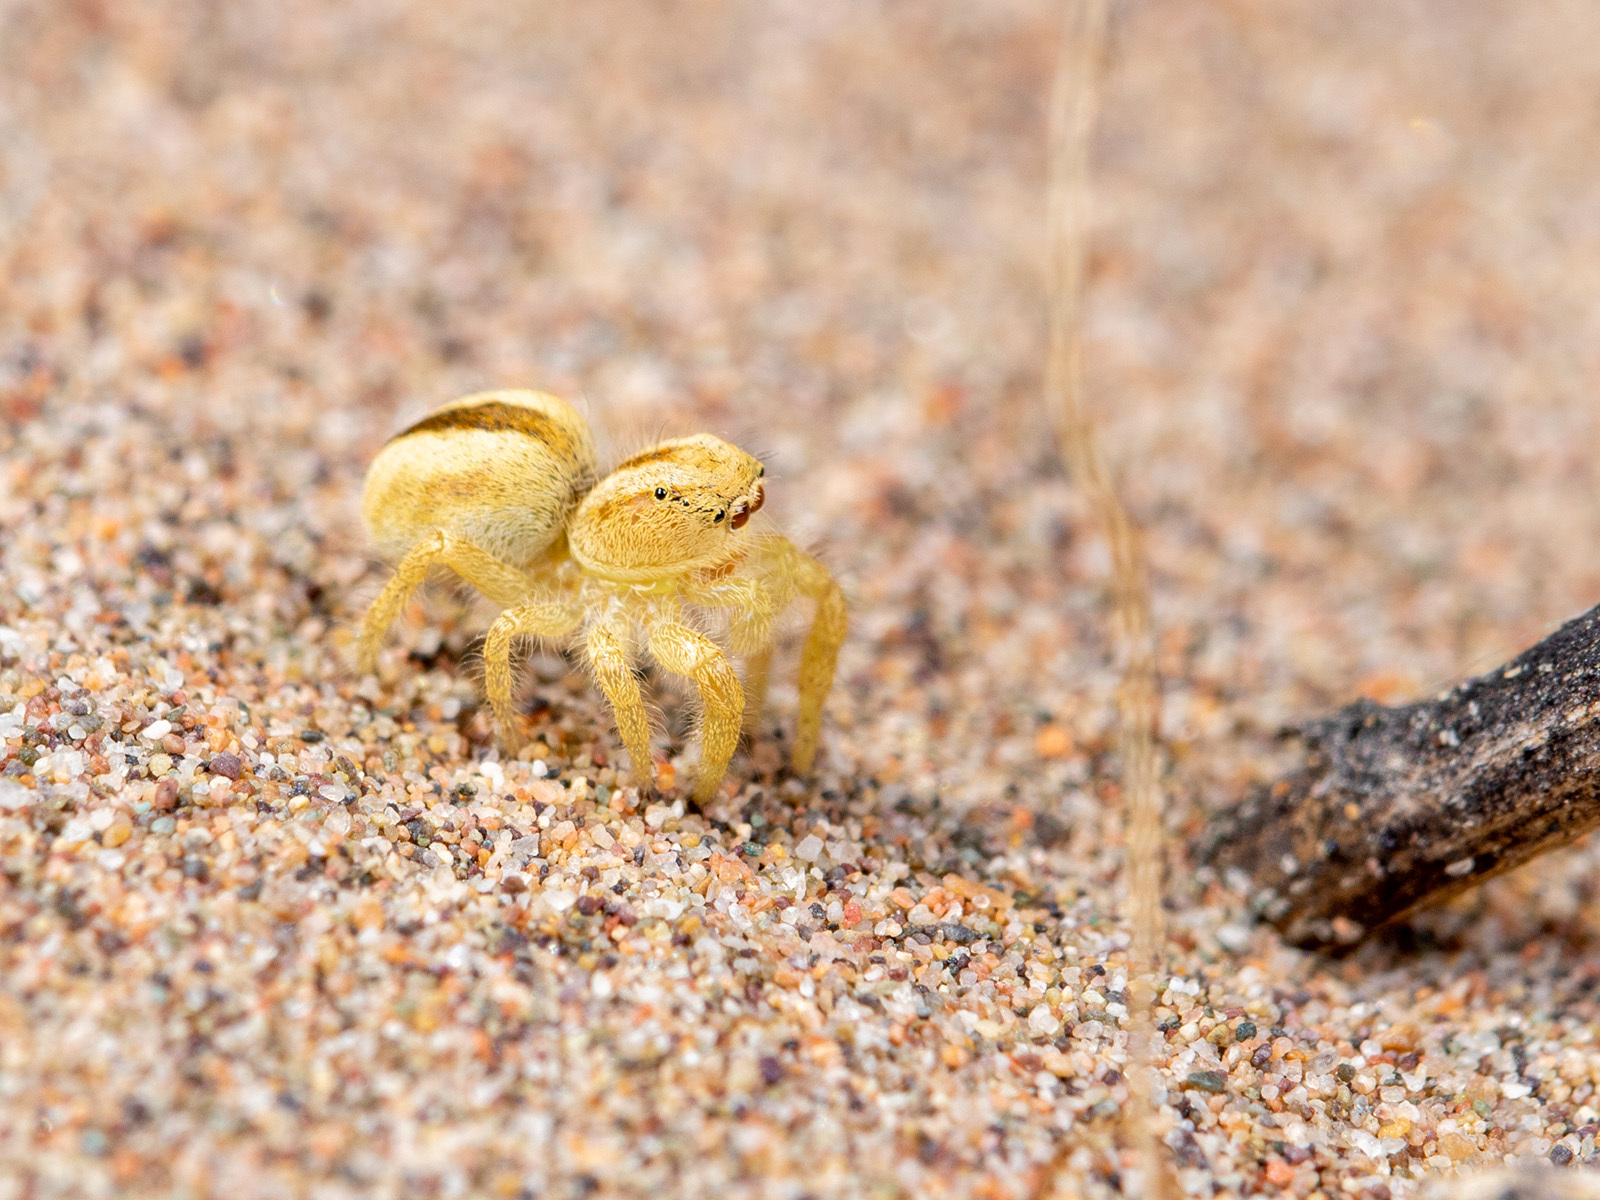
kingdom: Animalia
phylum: Arthropoda
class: Arachnida
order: Araneae
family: Salticidae
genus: Pseudomogrus
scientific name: Pseudomogrus zhilgaensis
